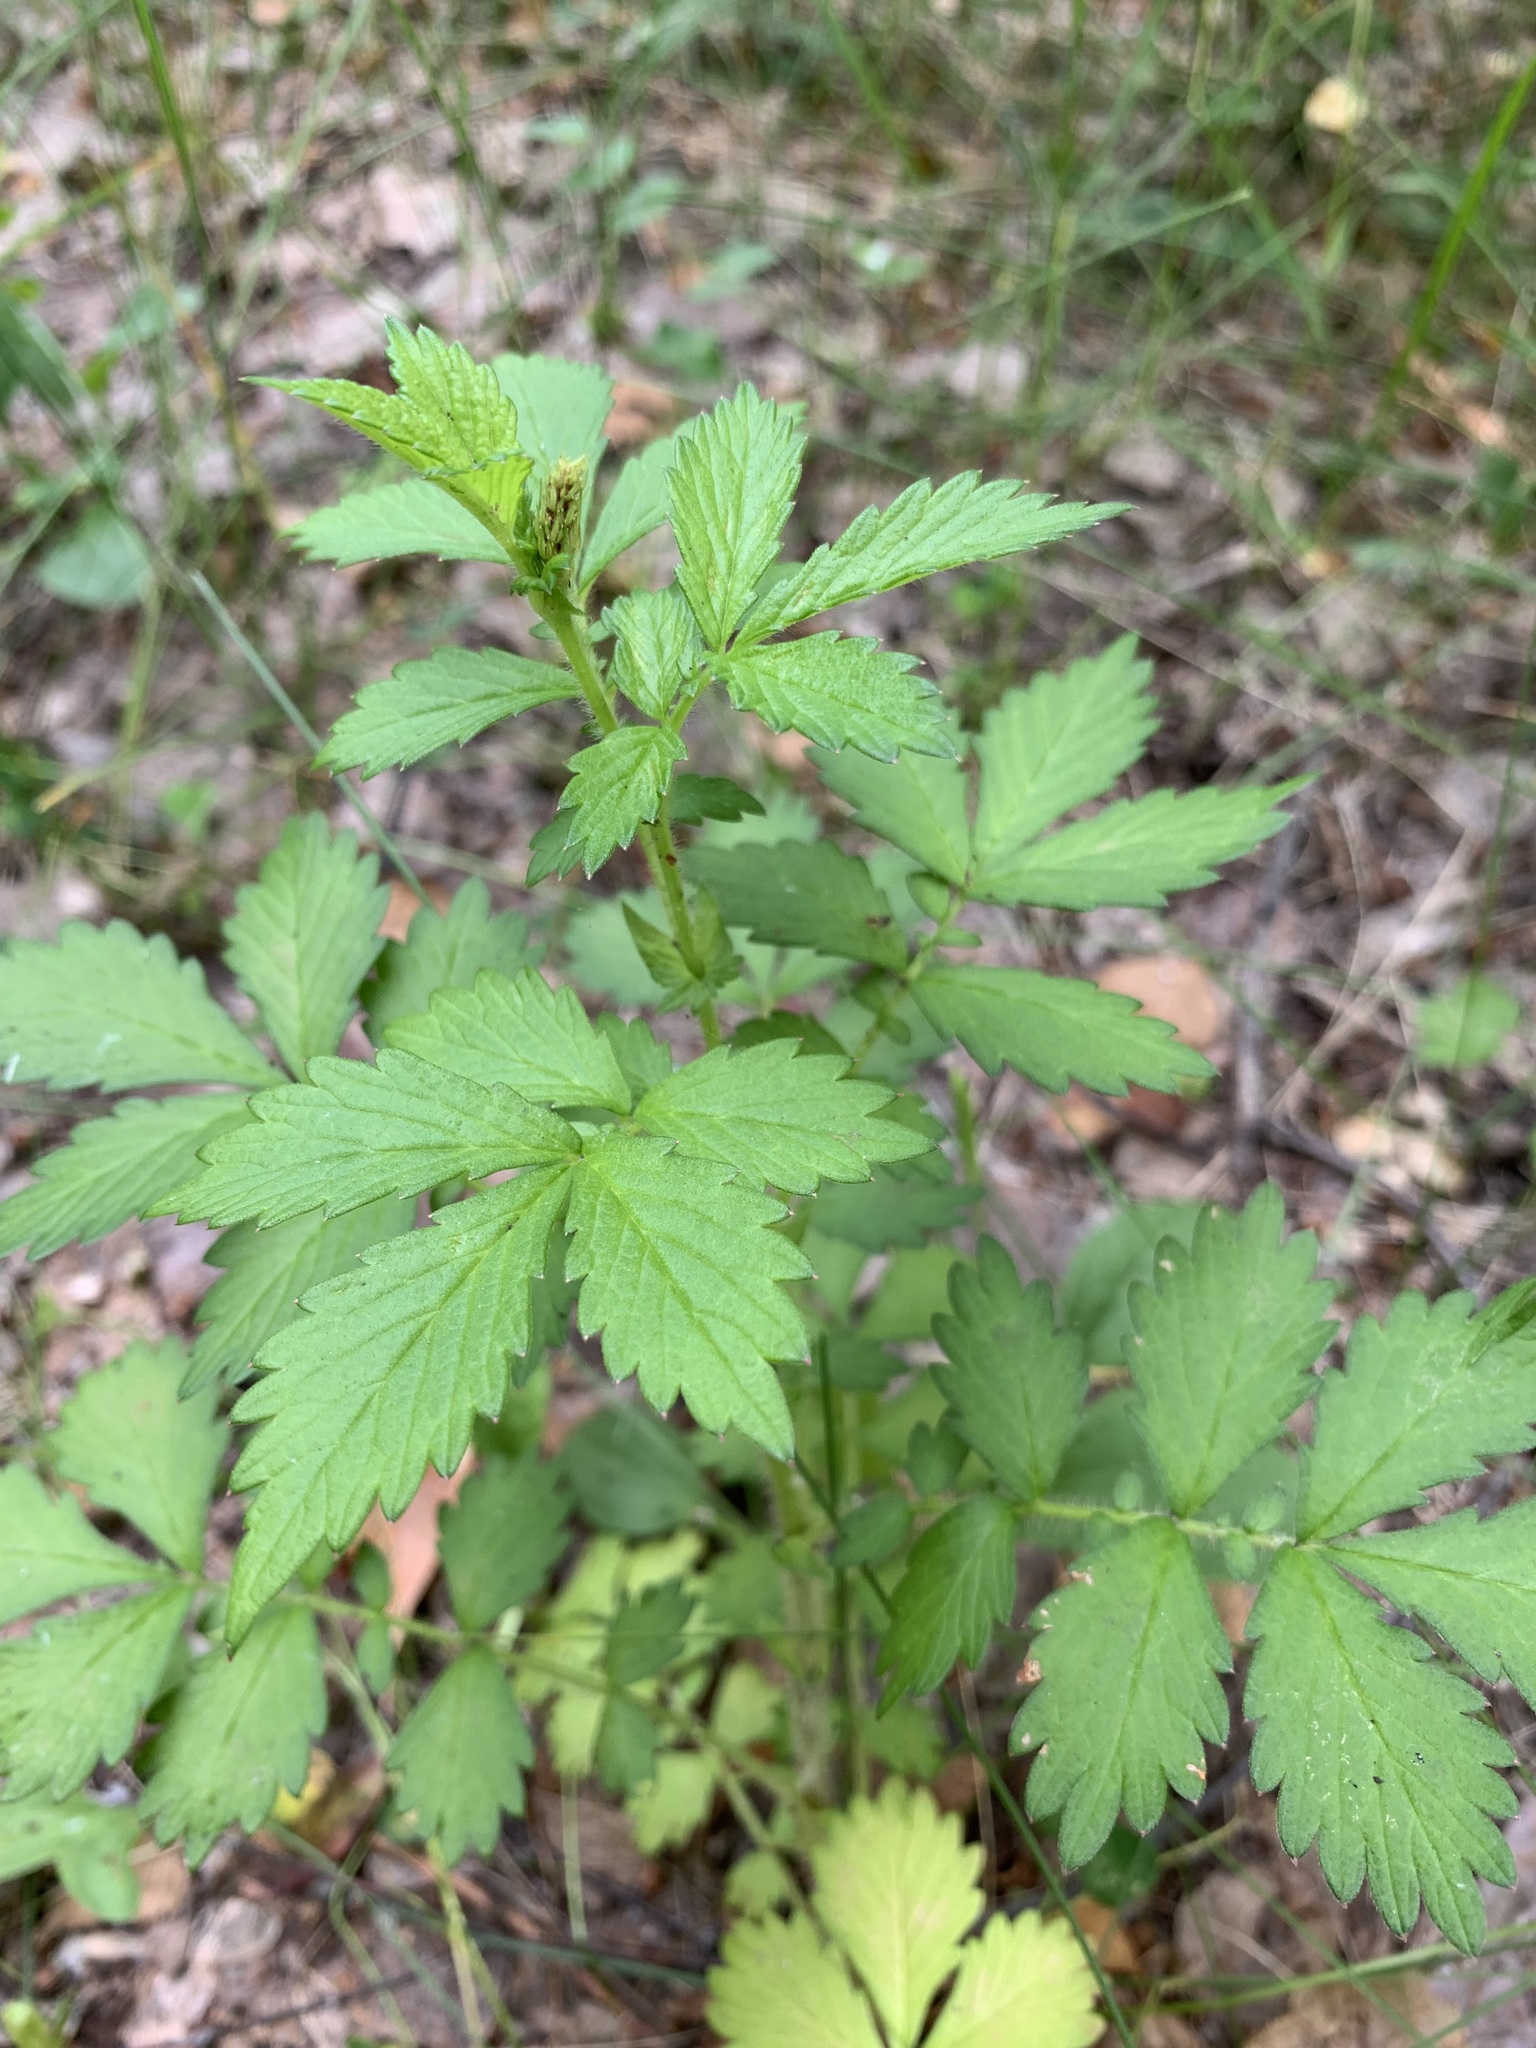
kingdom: Plantae
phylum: Tracheophyta
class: Magnoliopsida
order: Rosales
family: Rosaceae
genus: Agrimonia
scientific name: Agrimonia pilosa
